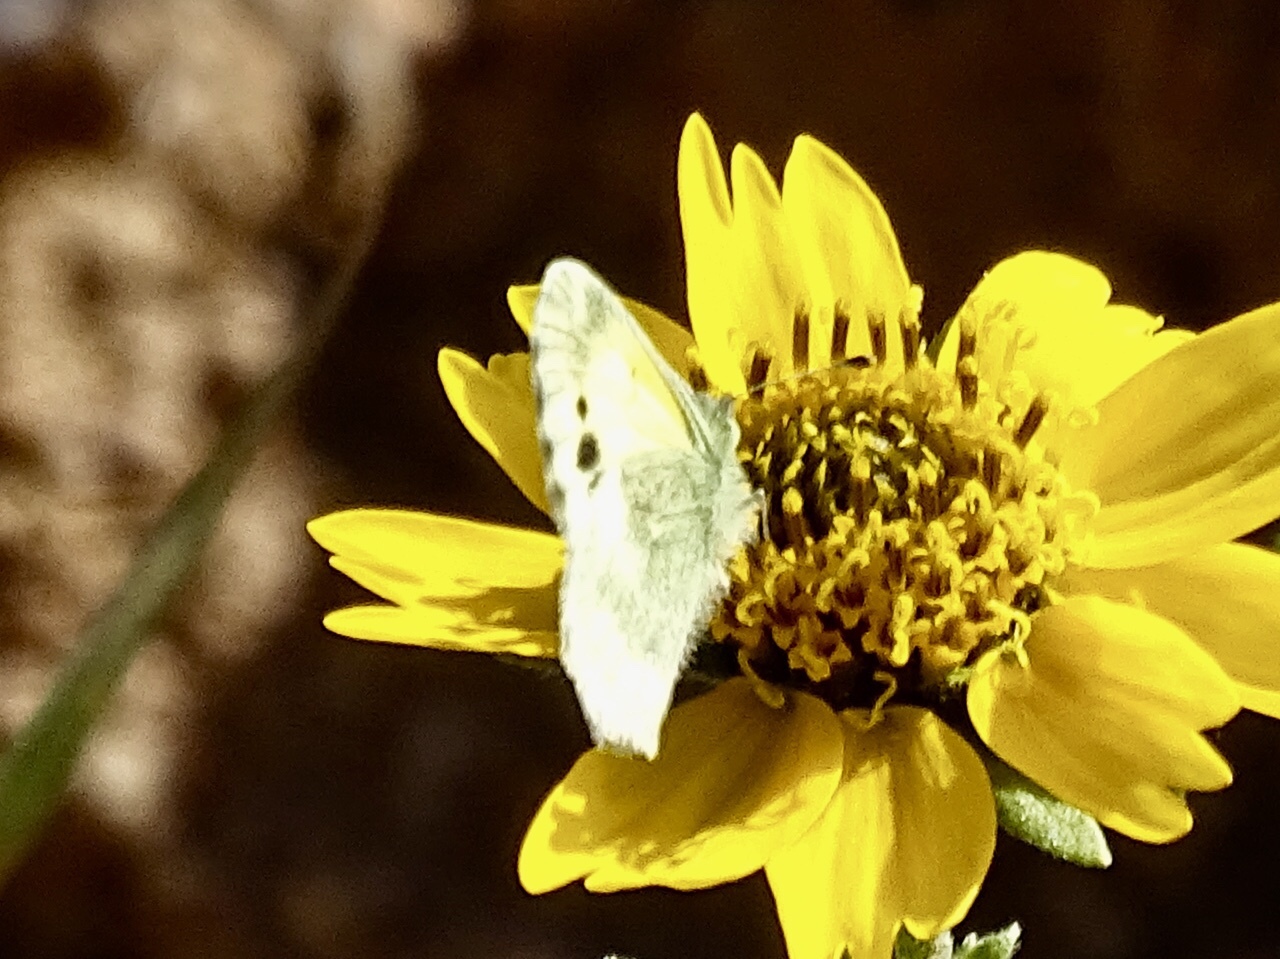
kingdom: Animalia
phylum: Arthropoda
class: Insecta
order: Lepidoptera
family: Pieridae
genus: Nathalis
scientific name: Nathalis iole
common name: Dainty sulphur
